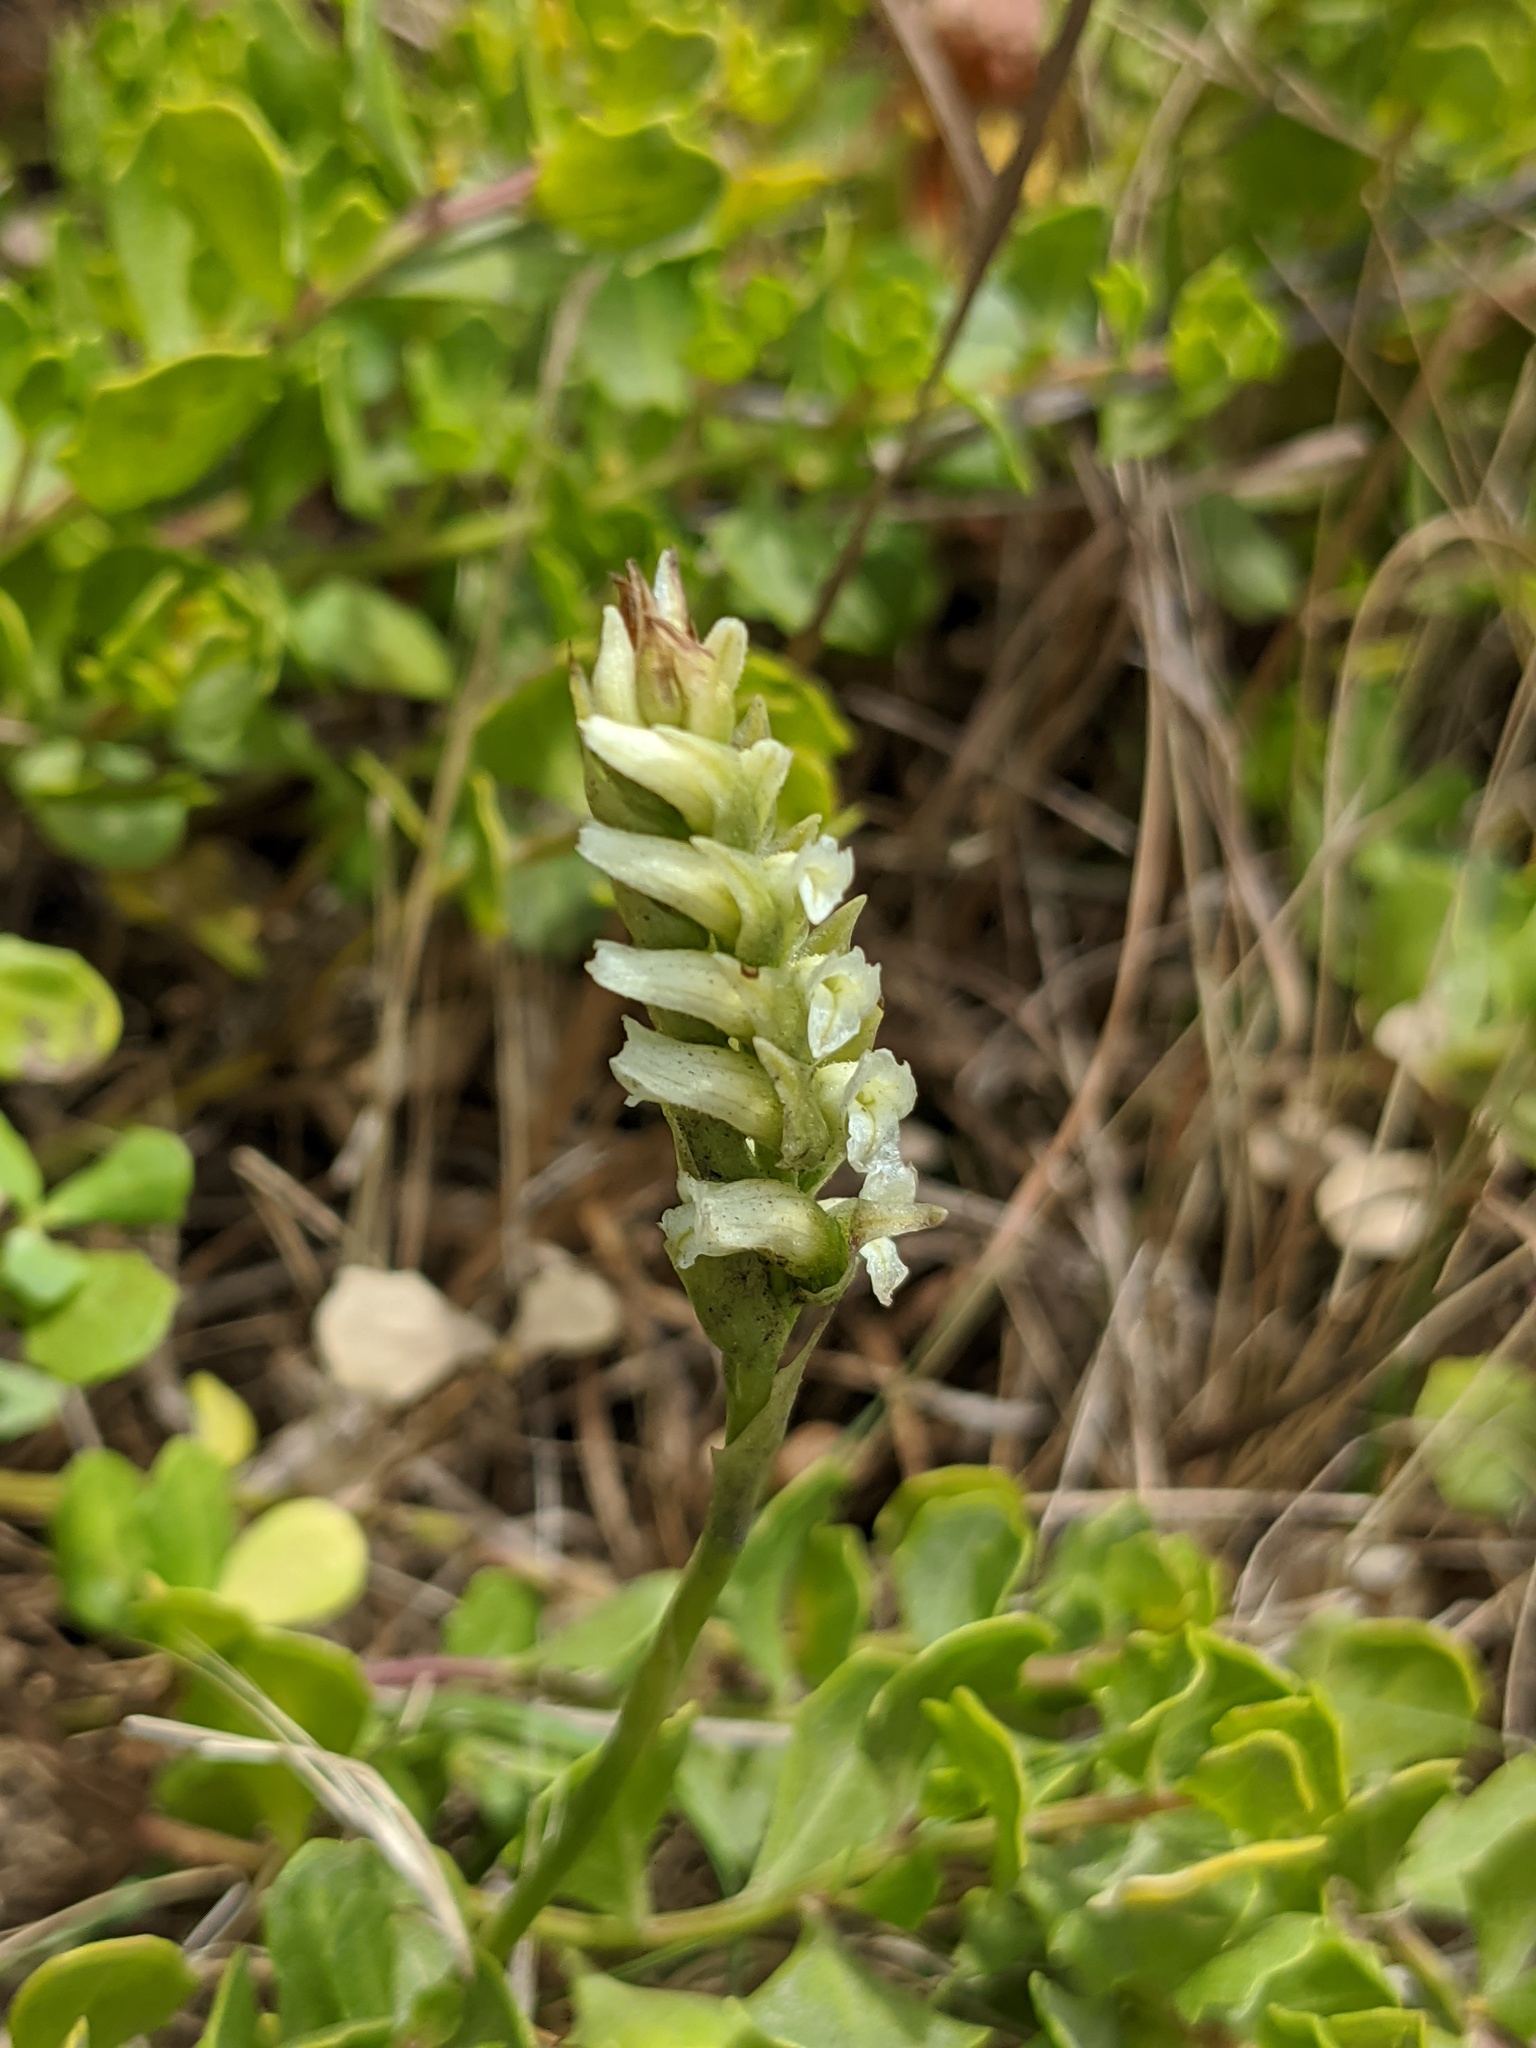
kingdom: Plantae
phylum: Tracheophyta
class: Liliopsida
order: Asparagales
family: Orchidaceae
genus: Spiranthes
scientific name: Spiranthes romanzoffiana
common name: Irish lady's-tresses
